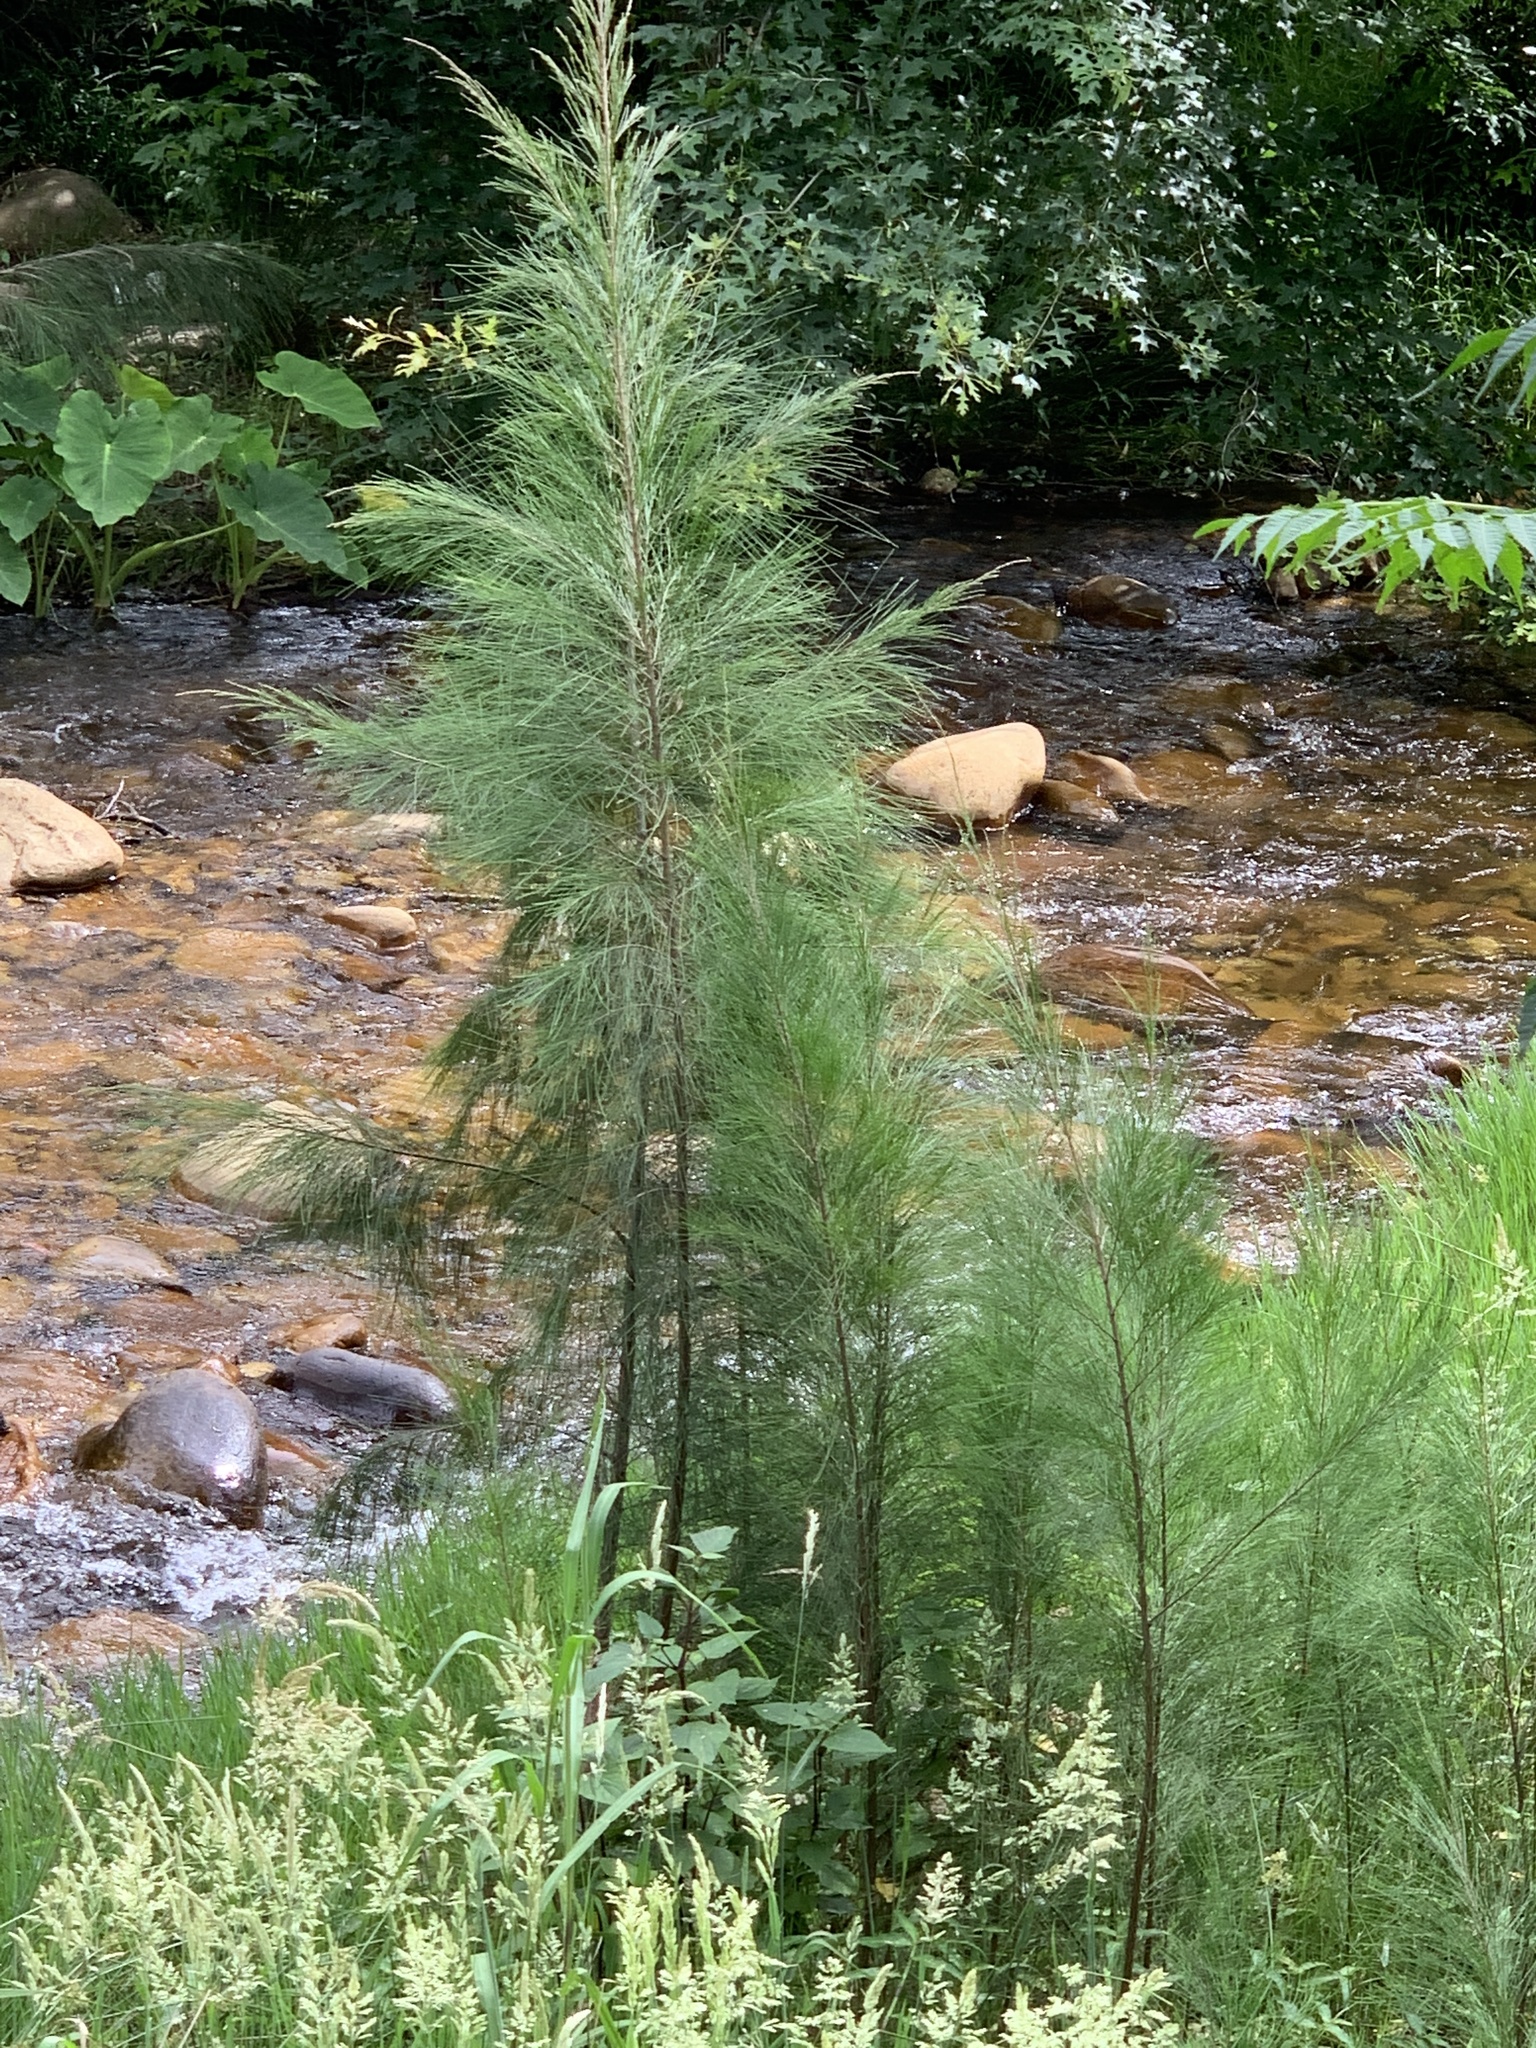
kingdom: Plantae
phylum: Tracheophyta
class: Magnoliopsida
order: Fagales
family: Casuarinaceae
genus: Casuarina
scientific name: Casuarina cunninghamiana
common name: River sheoak
